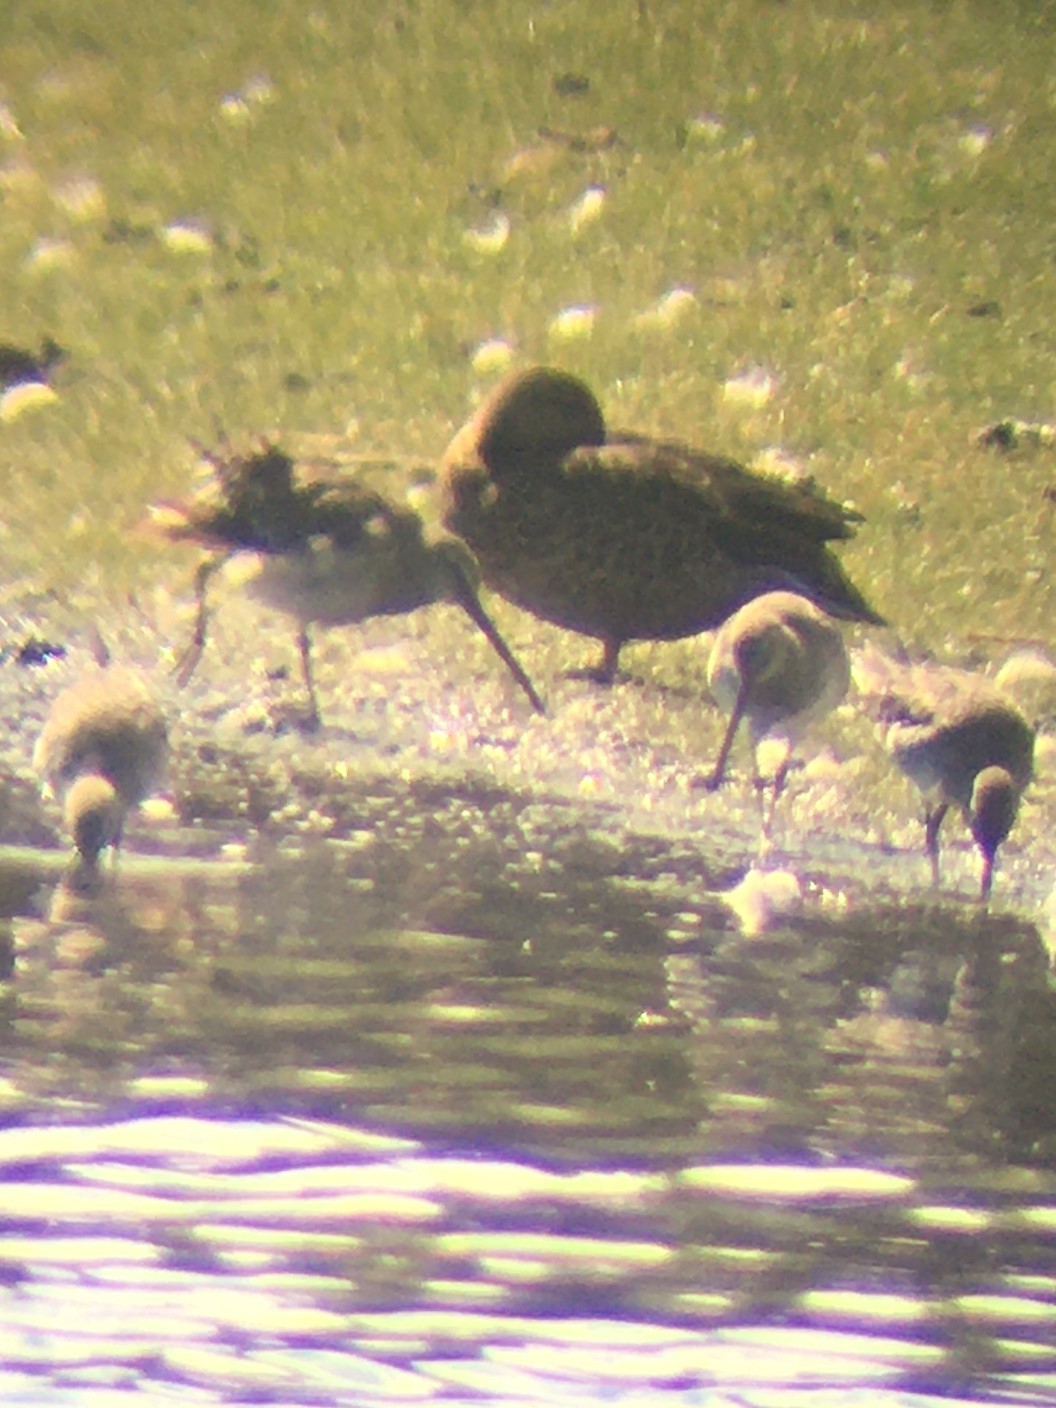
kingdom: Animalia
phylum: Chordata
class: Aves
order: Charadriiformes
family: Scolopacidae
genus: Limnodromus
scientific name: Limnodromus scolopaceus
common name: Long-billed dowitcher
